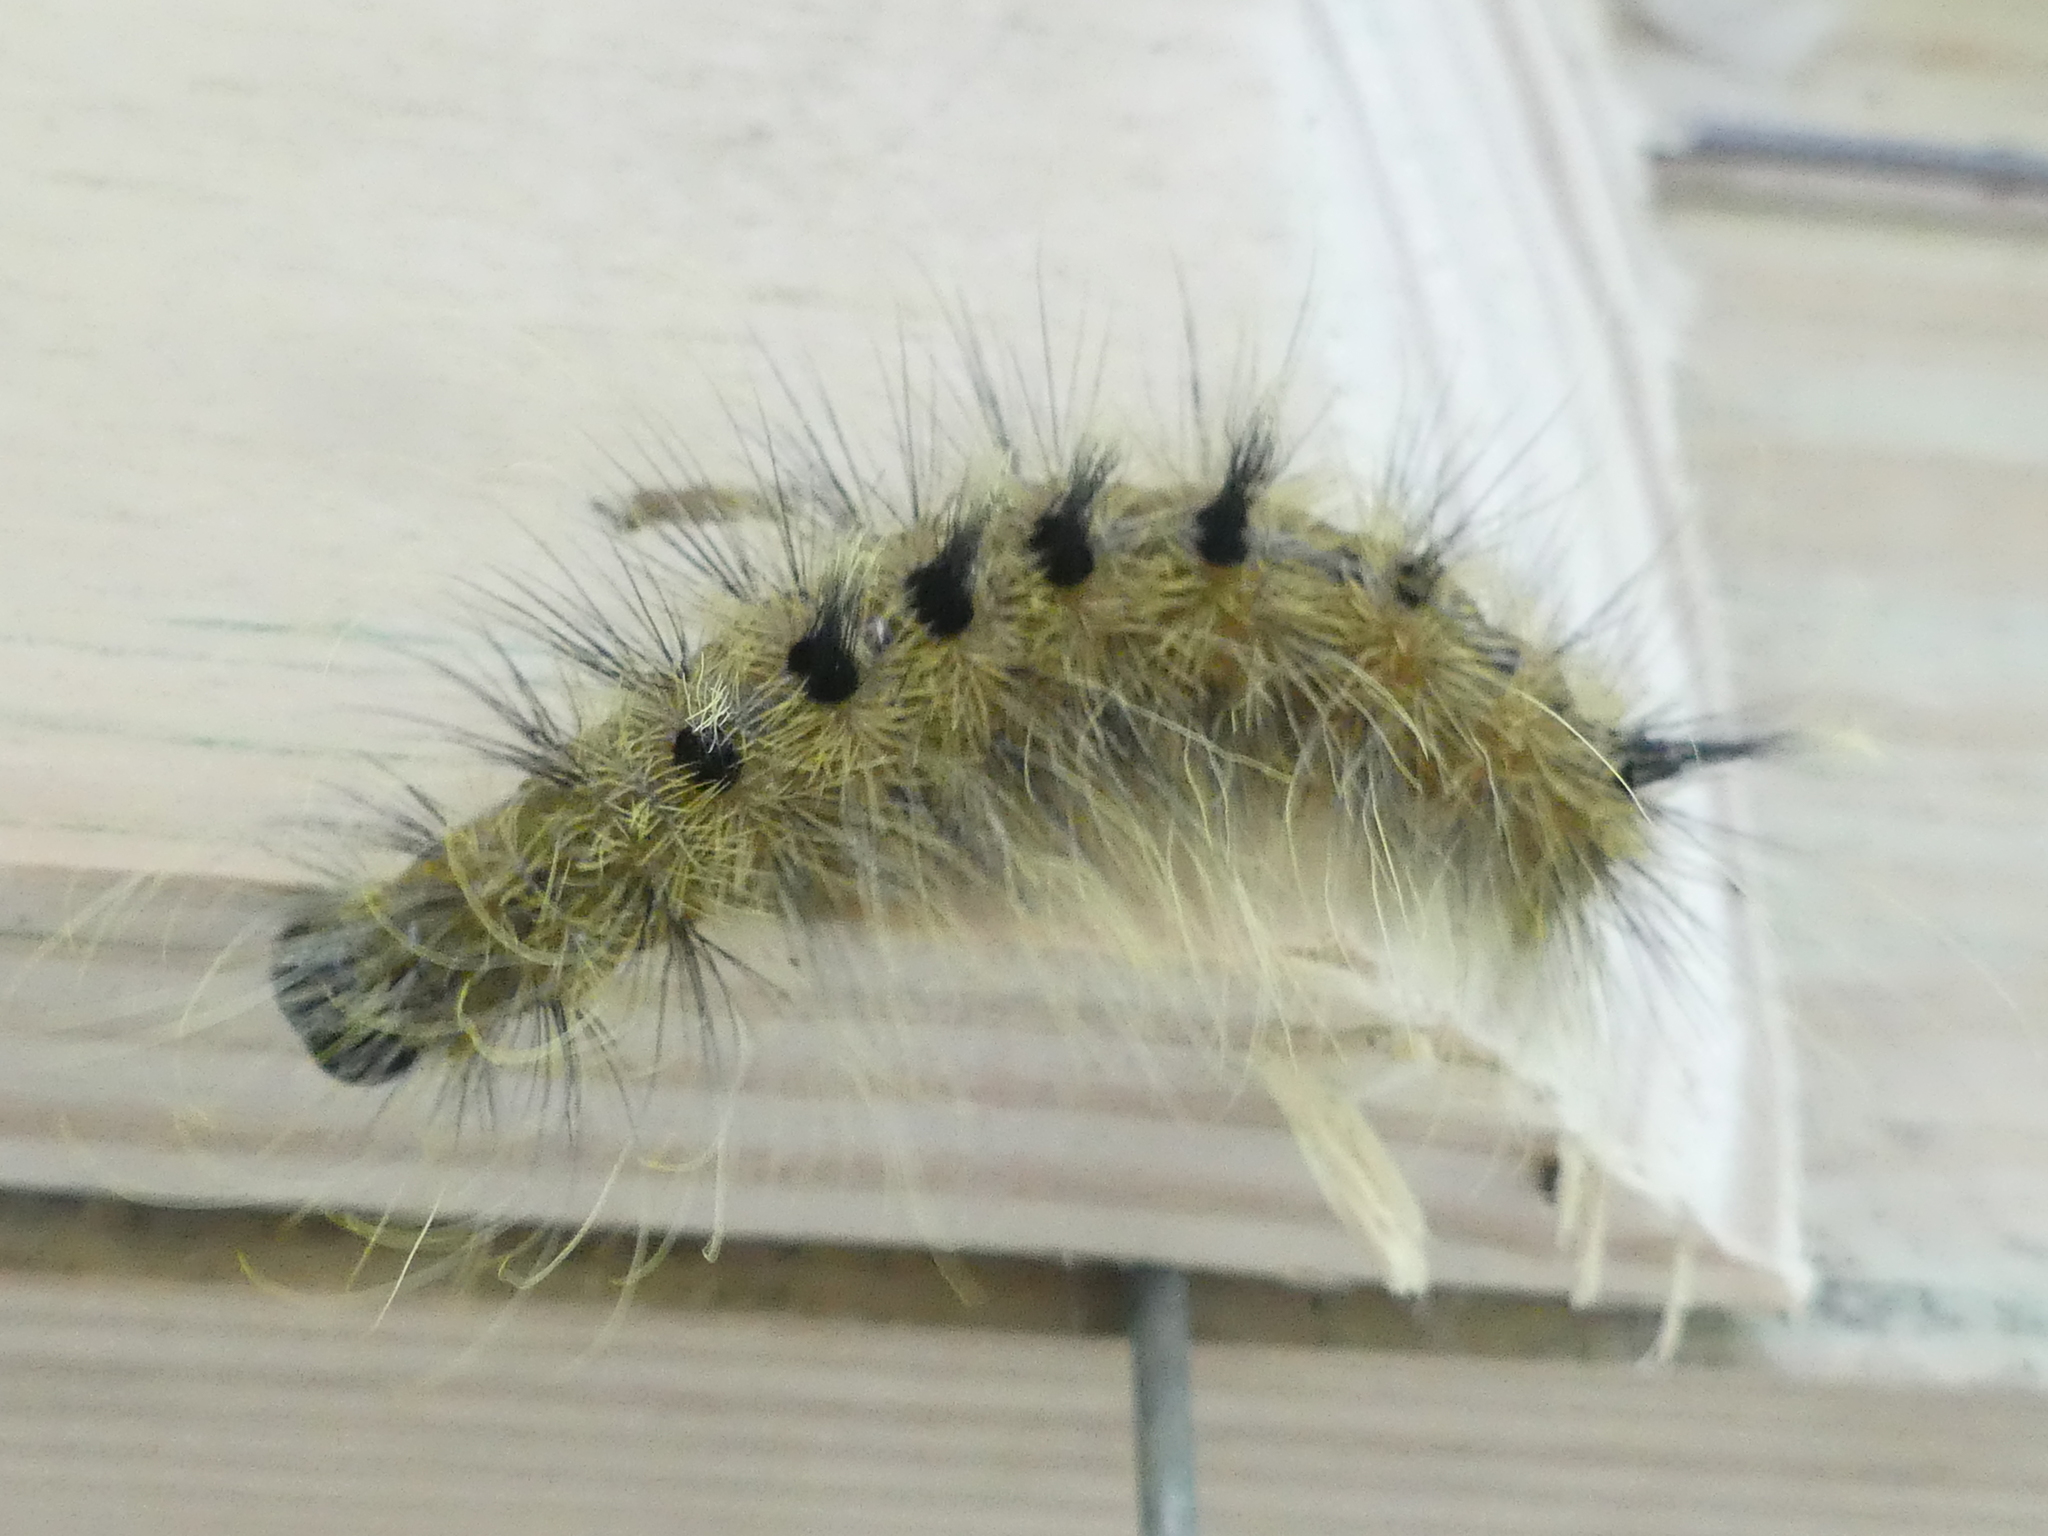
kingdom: Animalia
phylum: Arthropoda
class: Insecta
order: Lepidoptera
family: Noctuidae
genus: Acronicta
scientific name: Acronicta rubricoma
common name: Hackberry dagger
